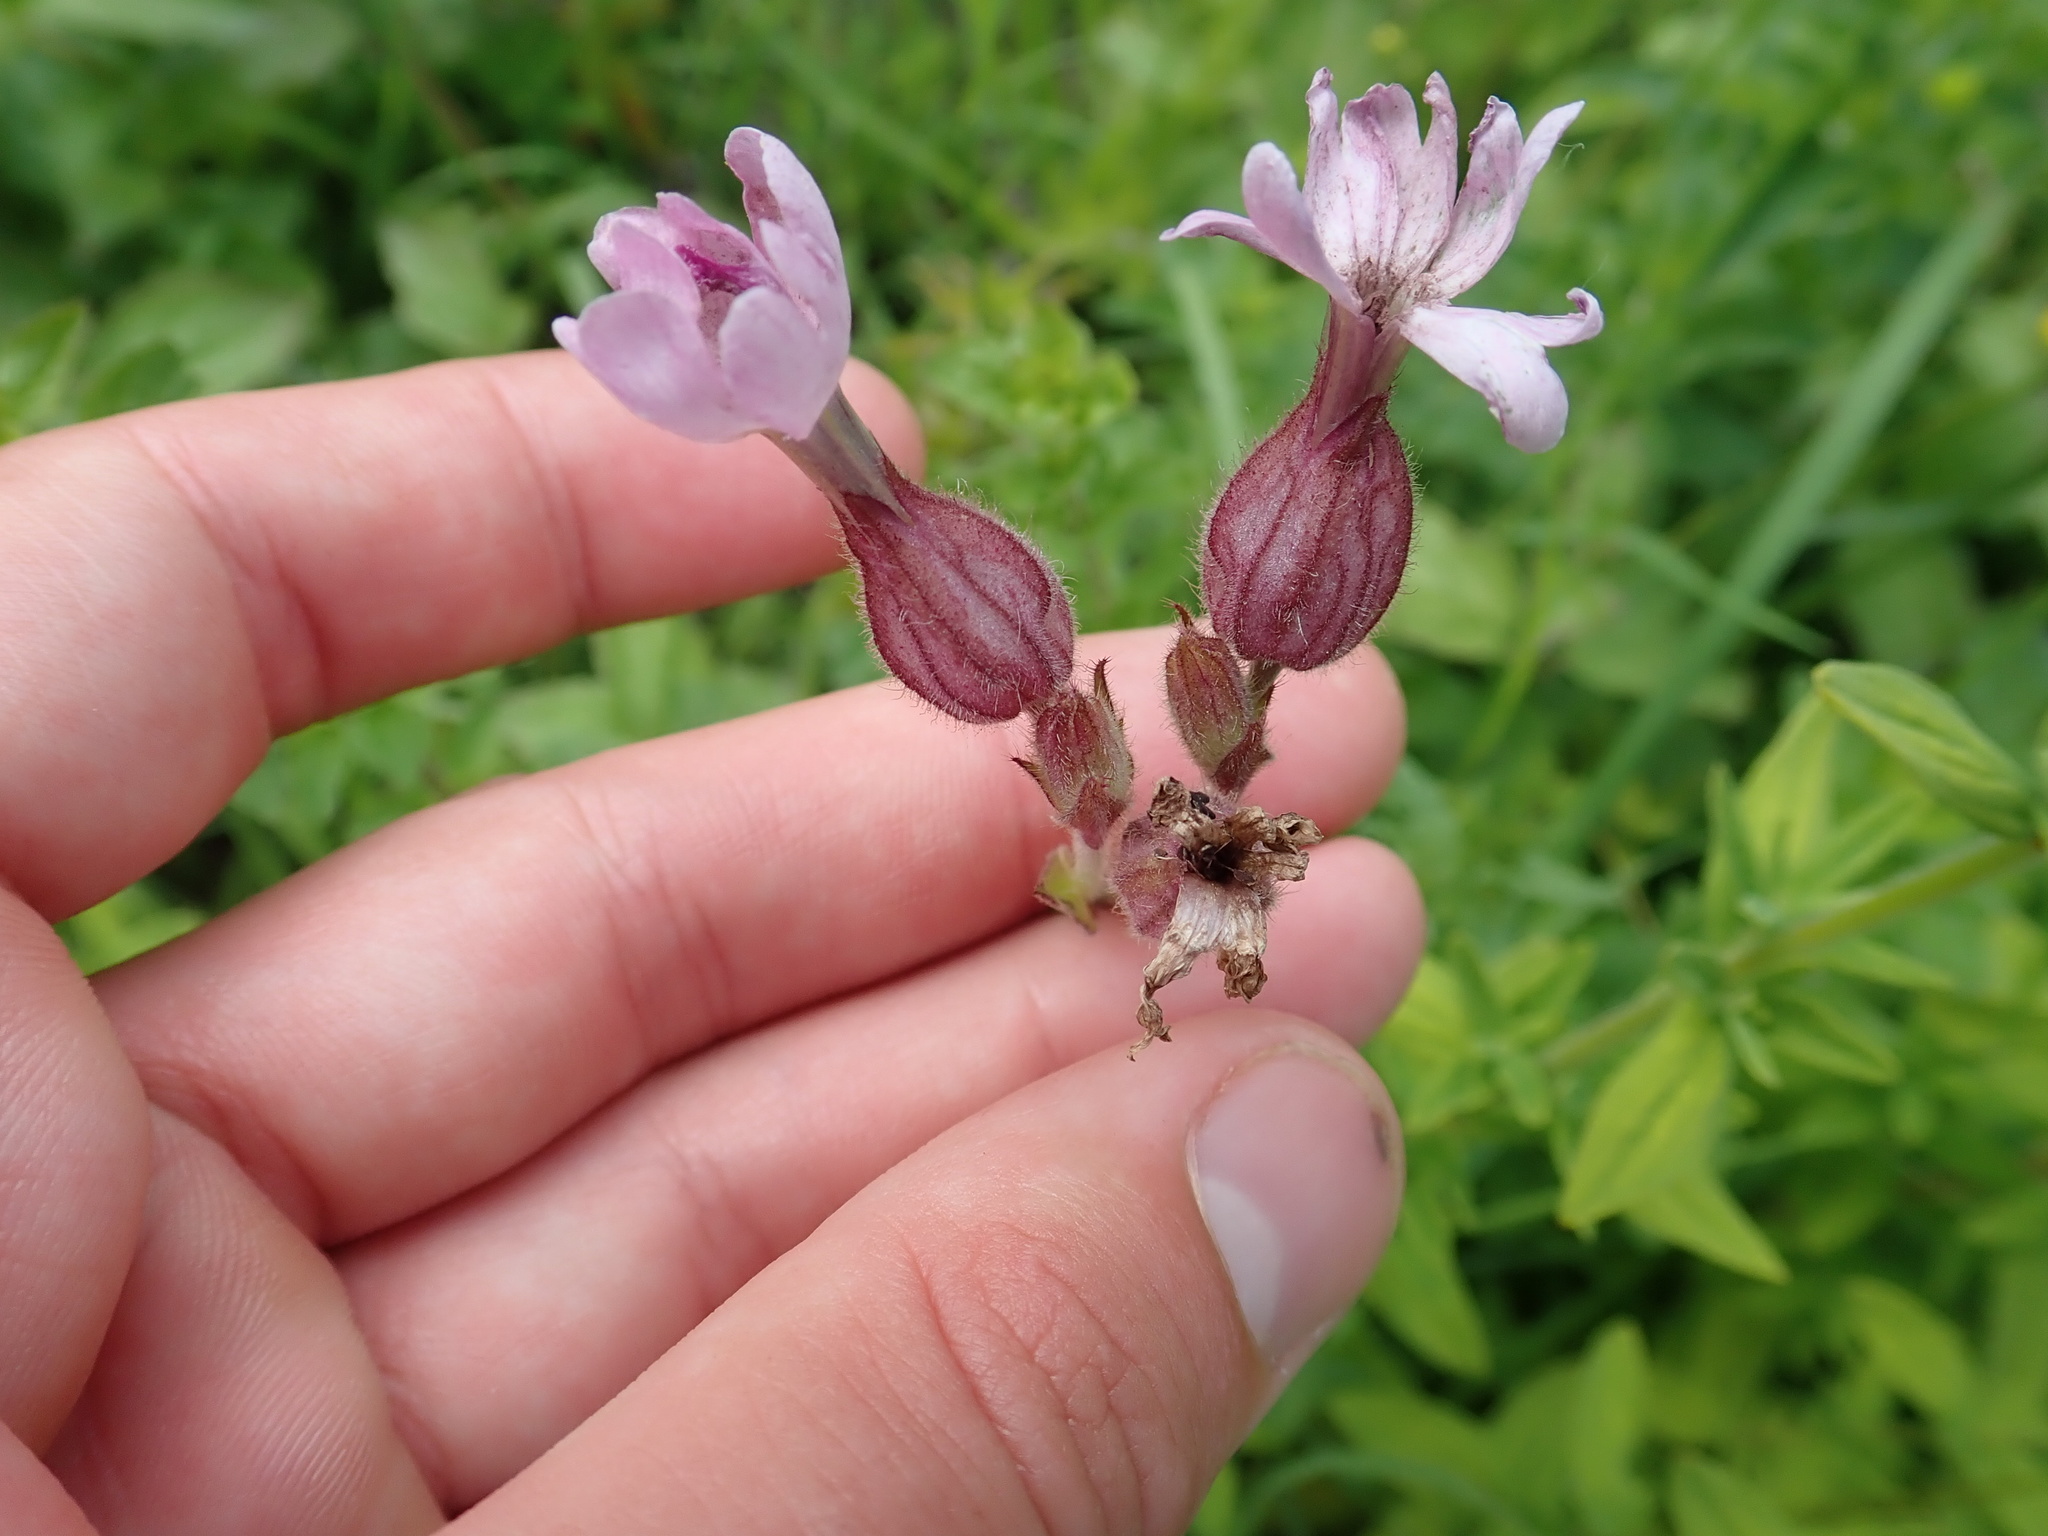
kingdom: Plantae
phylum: Tracheophyta
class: Magnoliopsida
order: Caryophyllales
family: Caryophyllaceae
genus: Silene
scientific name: Silene dioica
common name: Red campion
